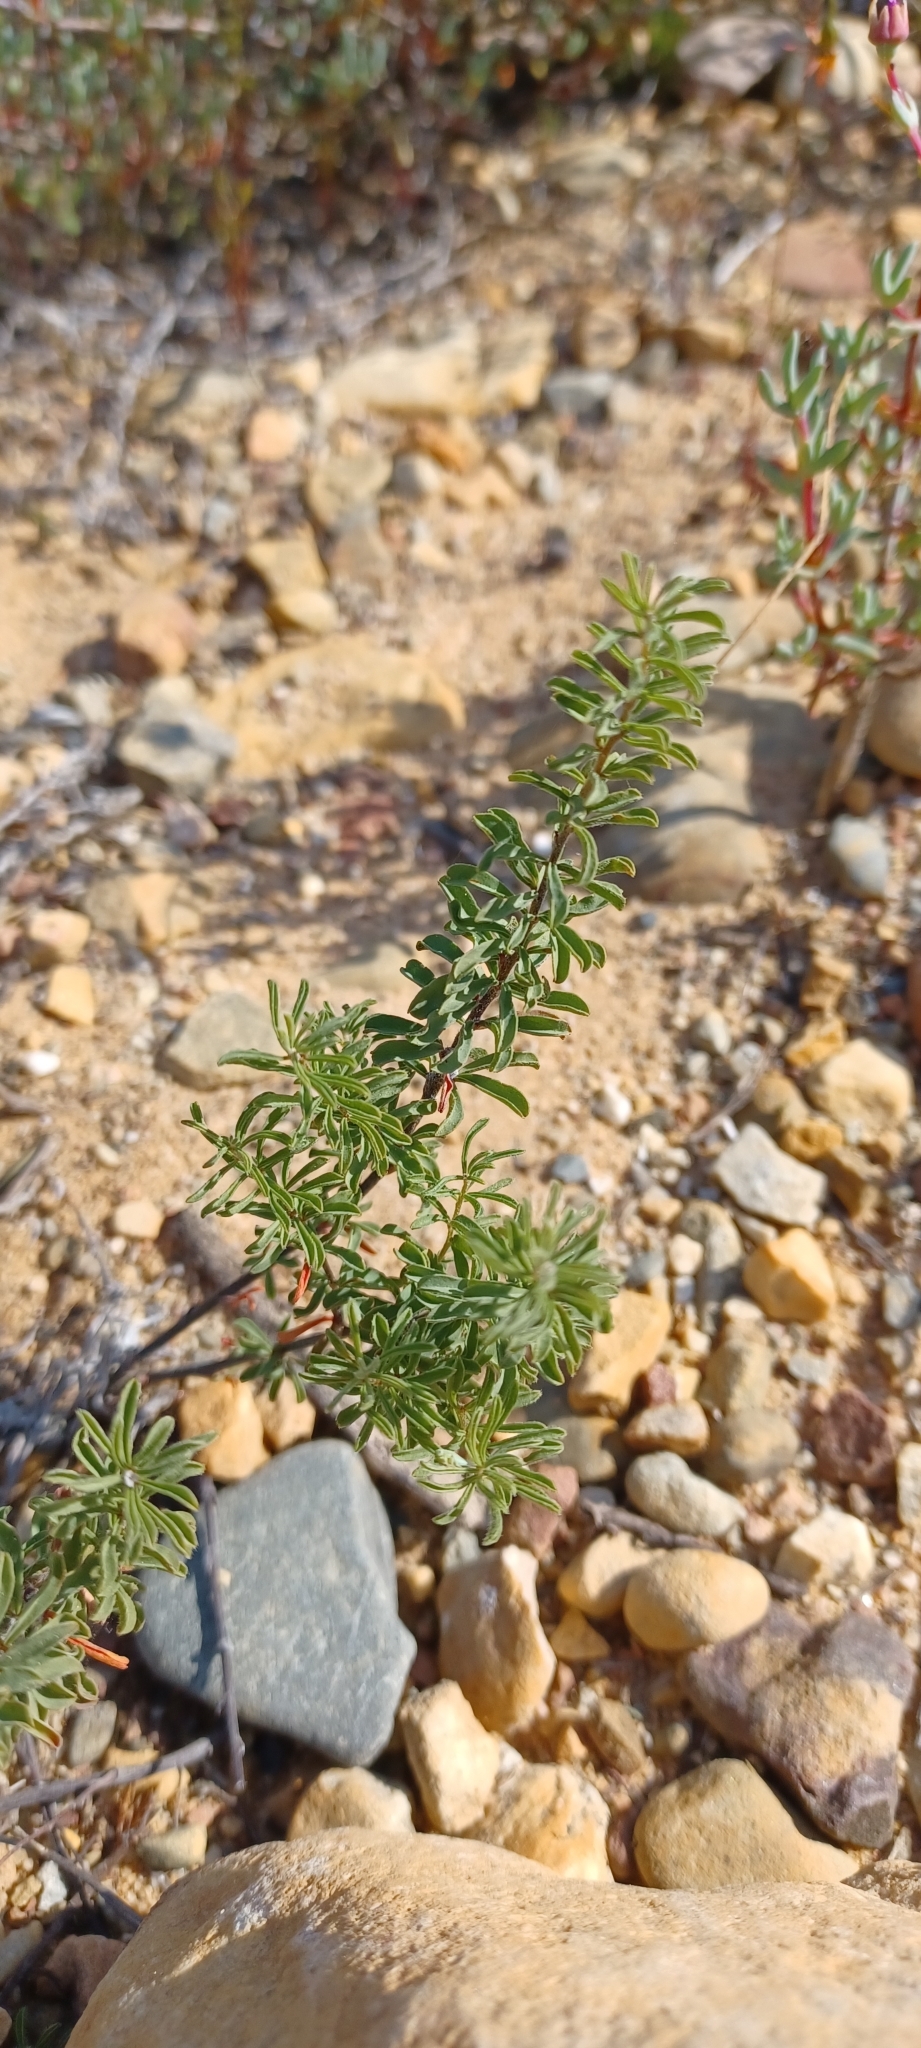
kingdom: Plantae
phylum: Tracheophyta
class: Magnoliopsida
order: Oxalidales
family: Oxalidaceae
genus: Oxalis
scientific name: Oxalis hirta
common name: Tropical woodsorrel
